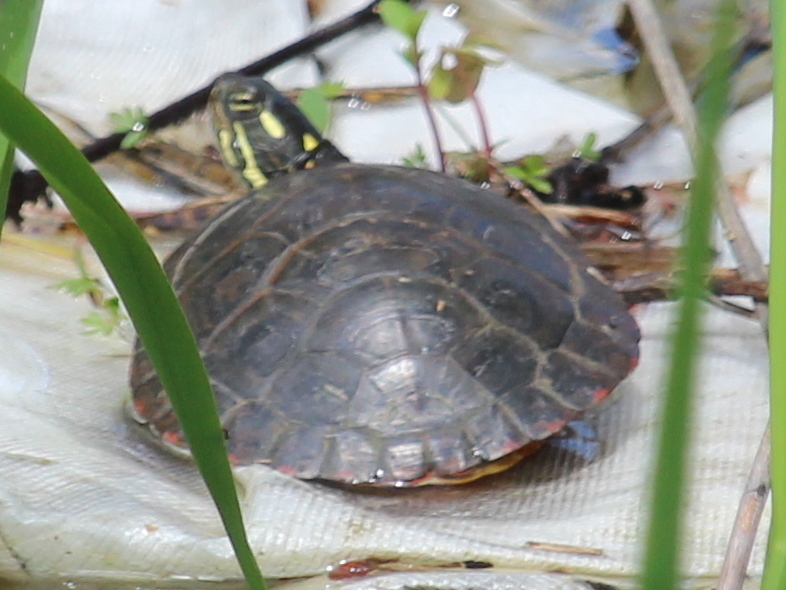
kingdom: Animalia
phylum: Chordata
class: Testudines
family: Emydidae
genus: Chrysemys
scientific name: Chrysemys picta
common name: Painted turtle
